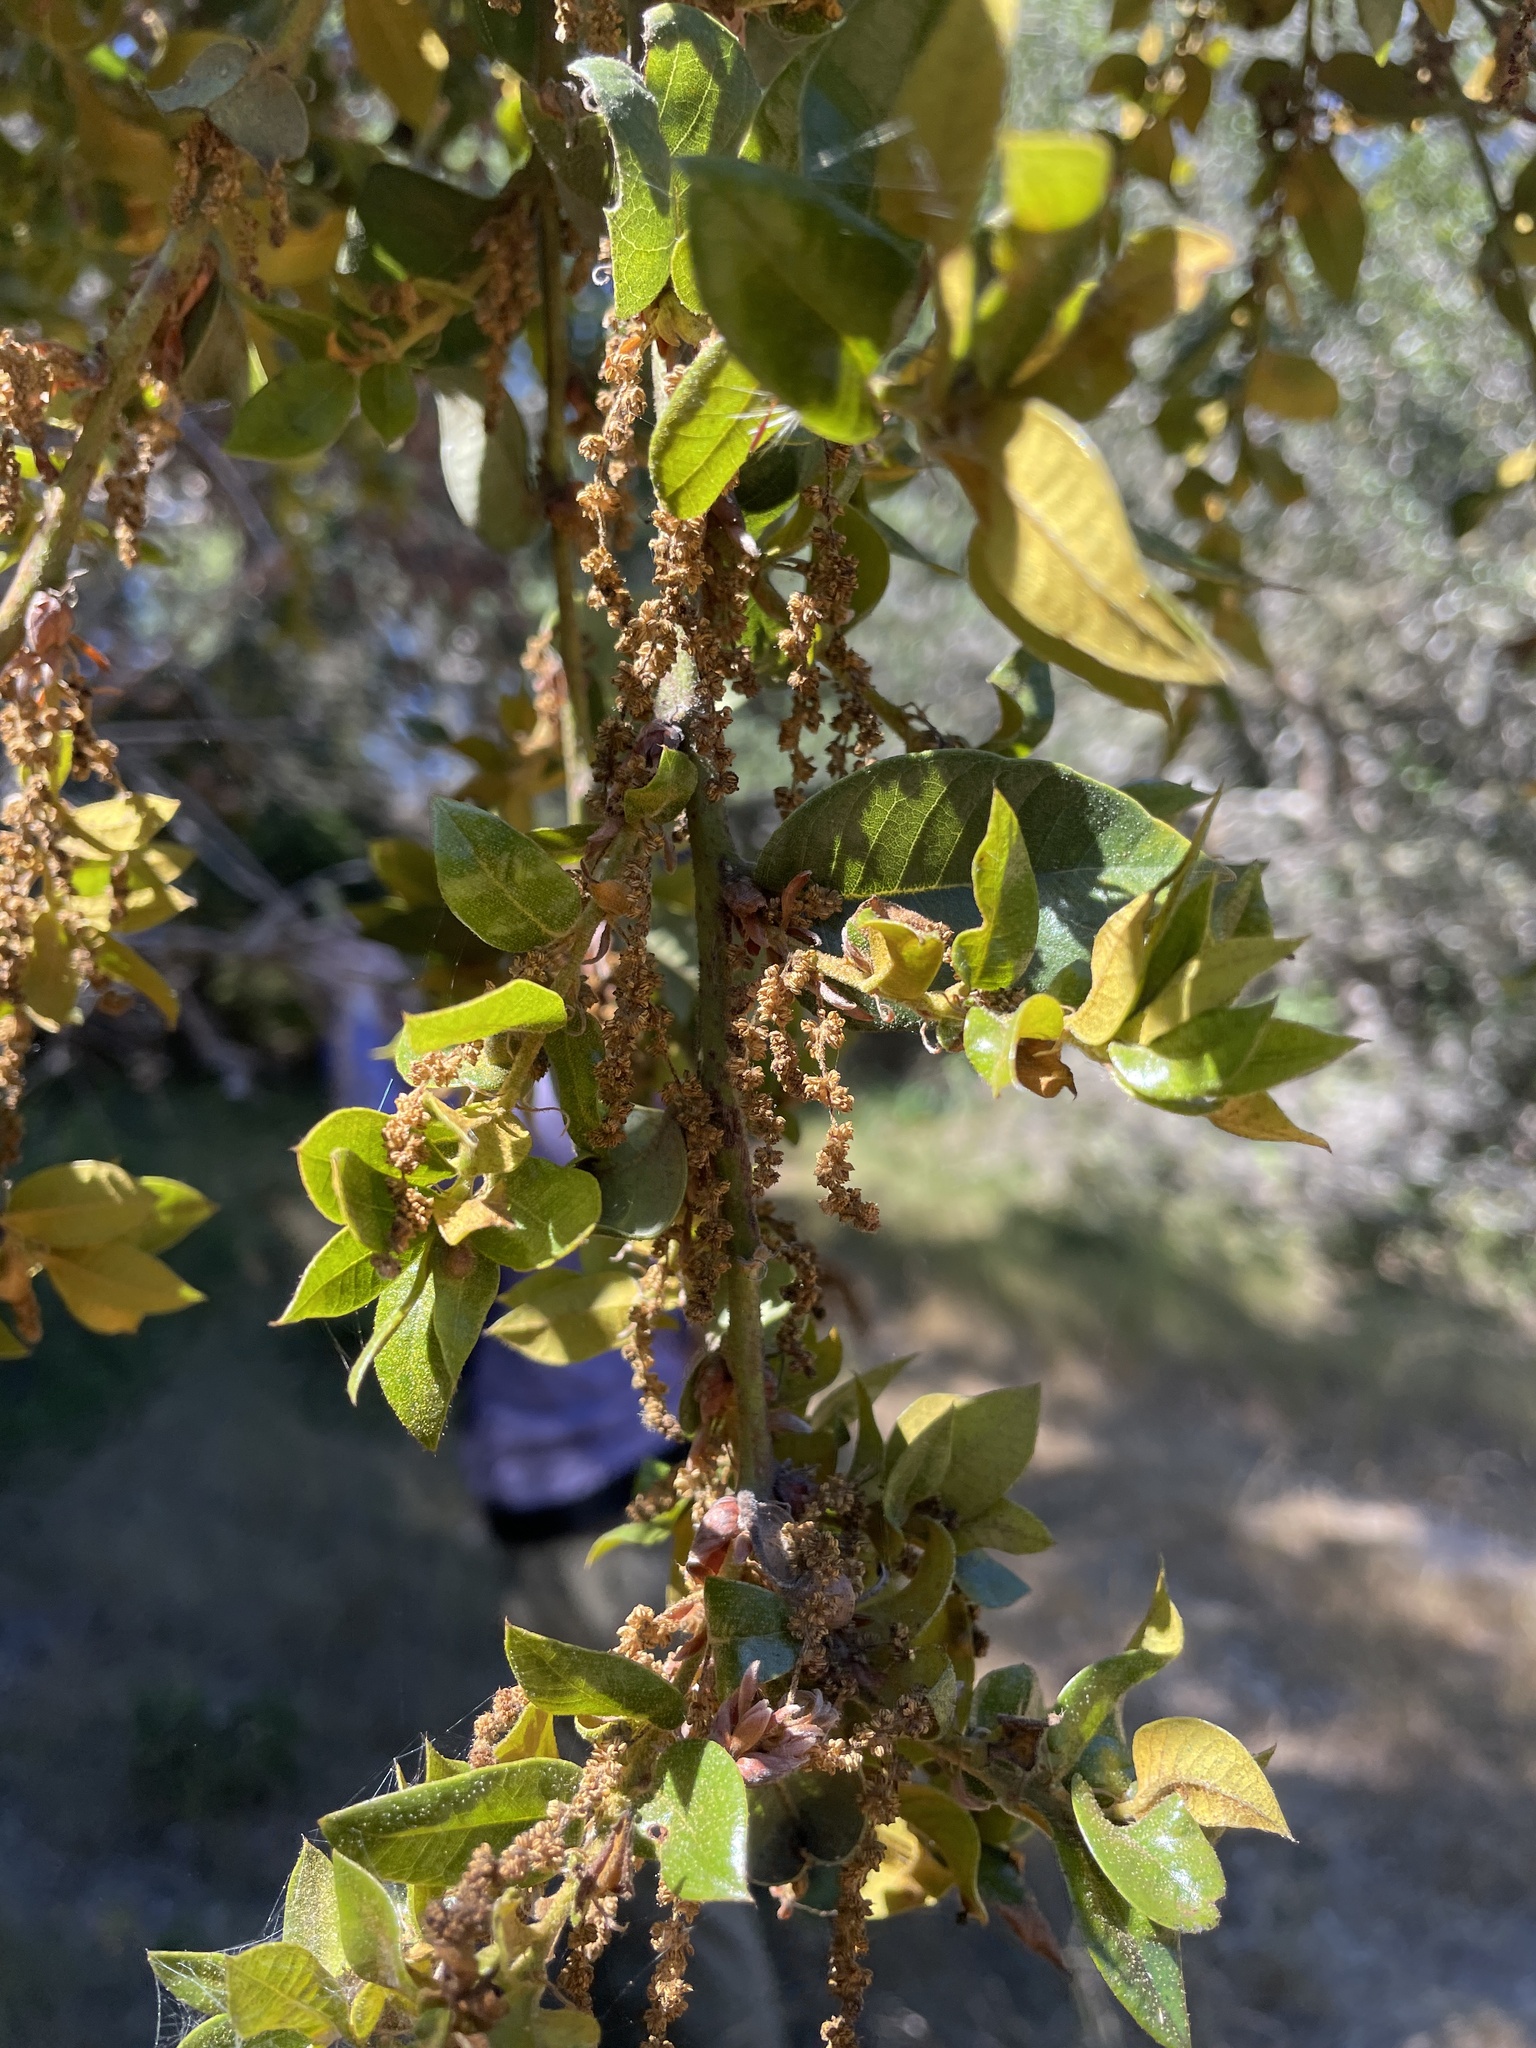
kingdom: Plantae
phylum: Tracheophyta
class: Magnoliopsida
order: Fagales
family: Fagaceae
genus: Quercus
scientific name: Quercus chrysolepis
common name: Canyon live oak
